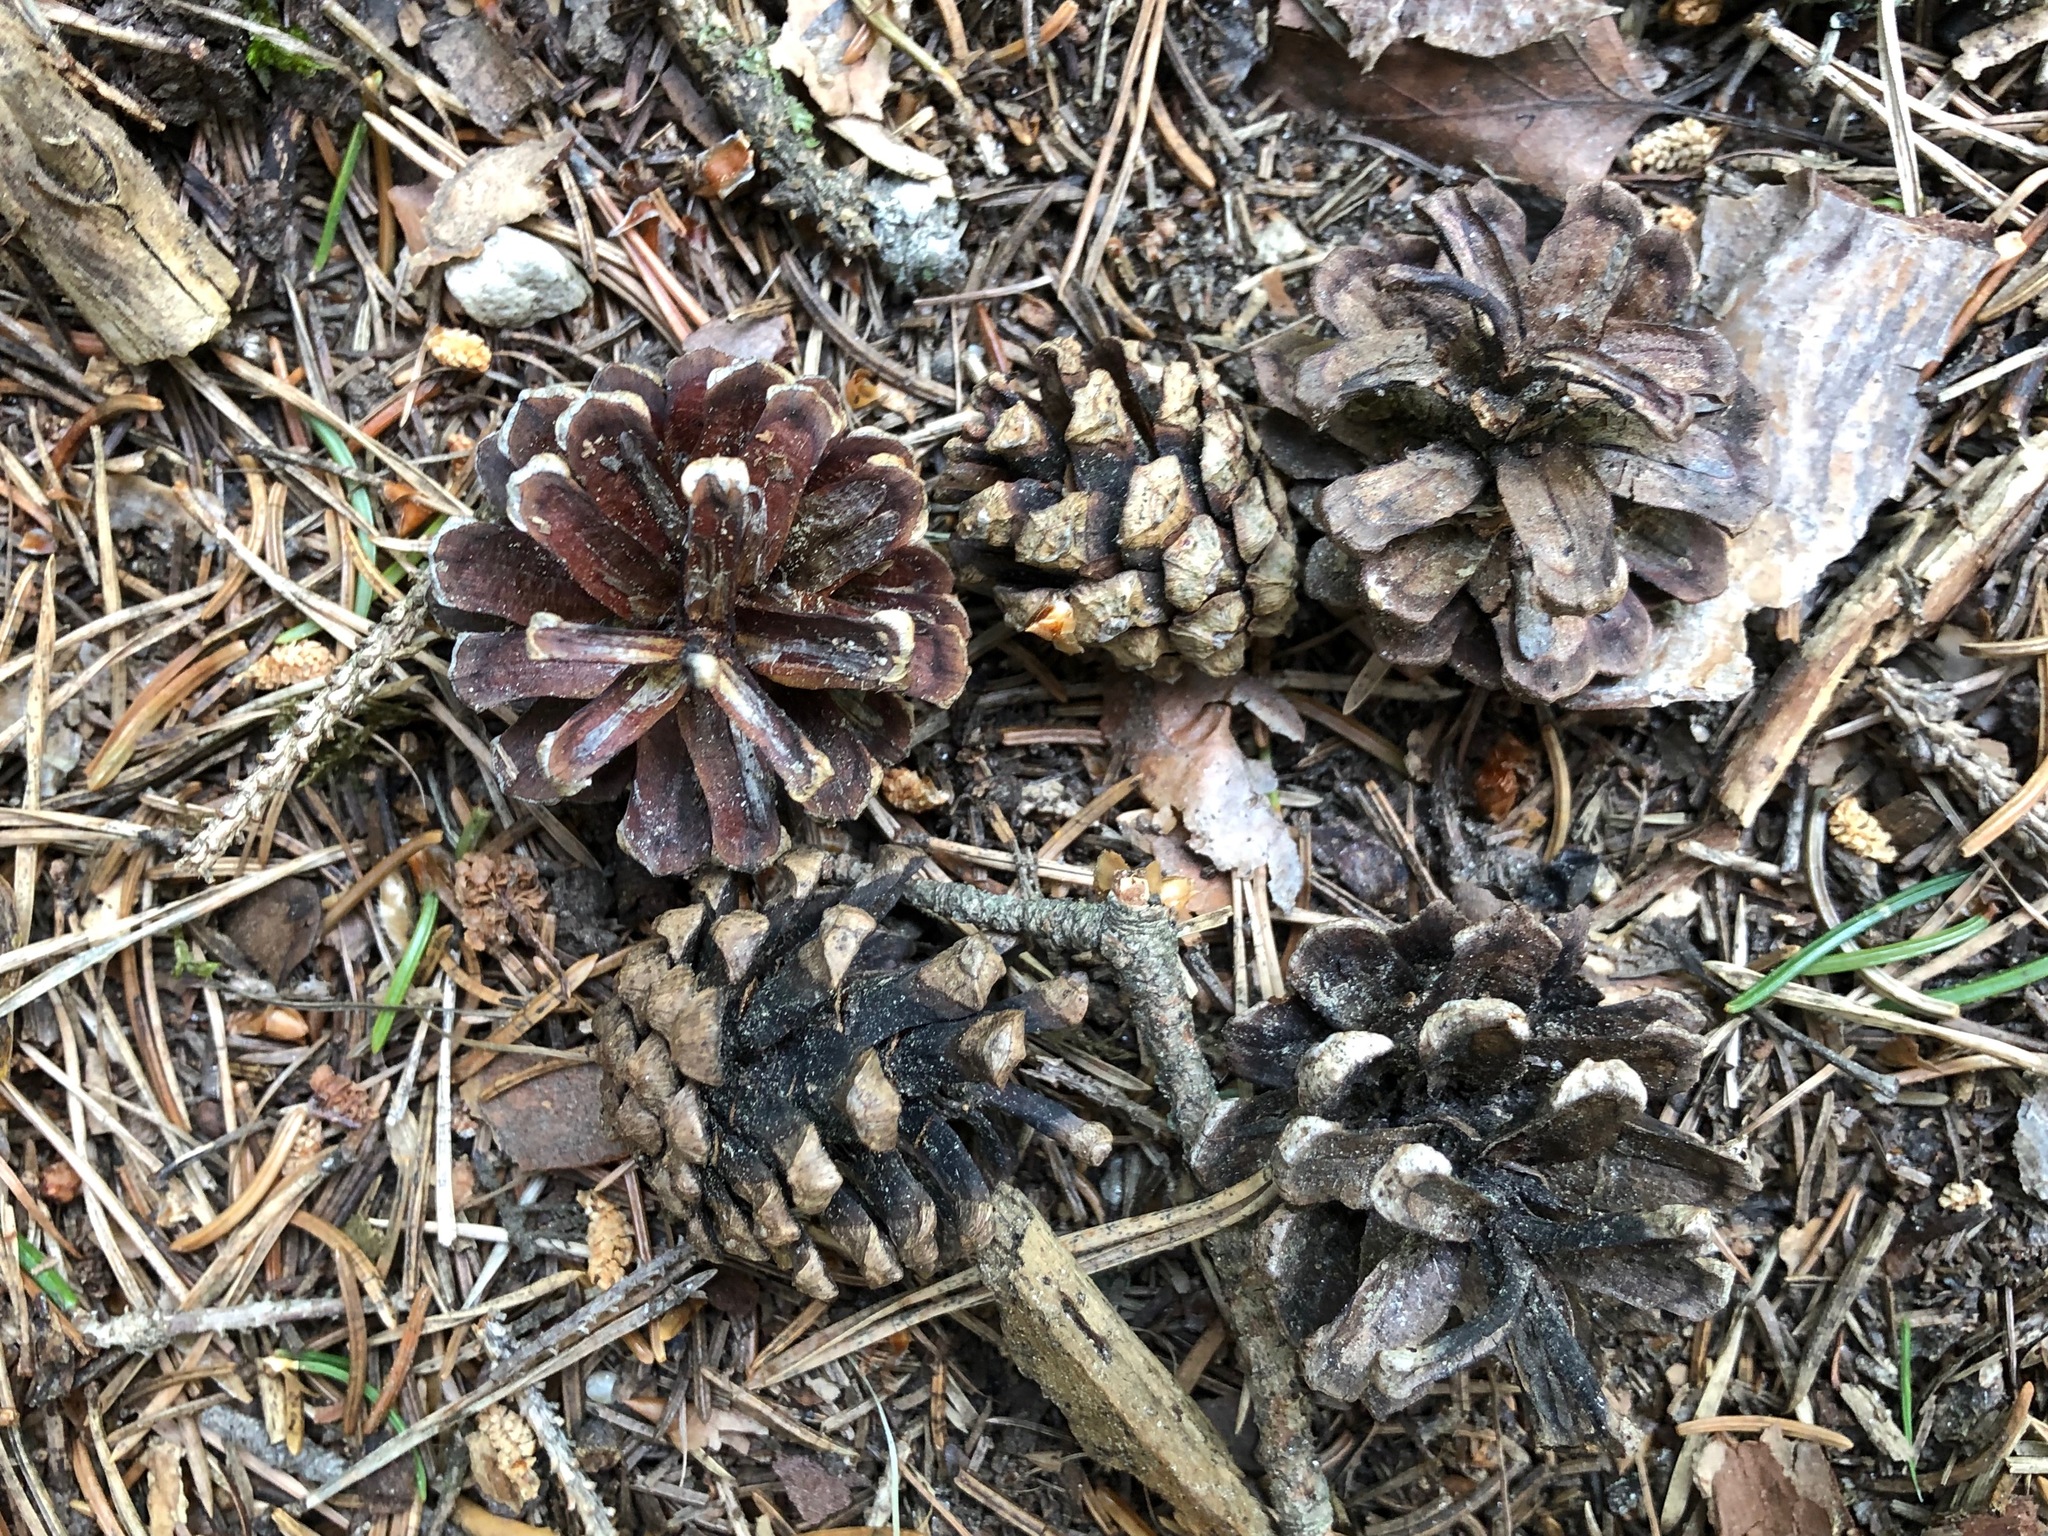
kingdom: Plantae
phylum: Tracheophyta
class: Pinopsida
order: Pinales
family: Pinaceae
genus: Pinus
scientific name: Pinus sylvestris
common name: Scots pine
